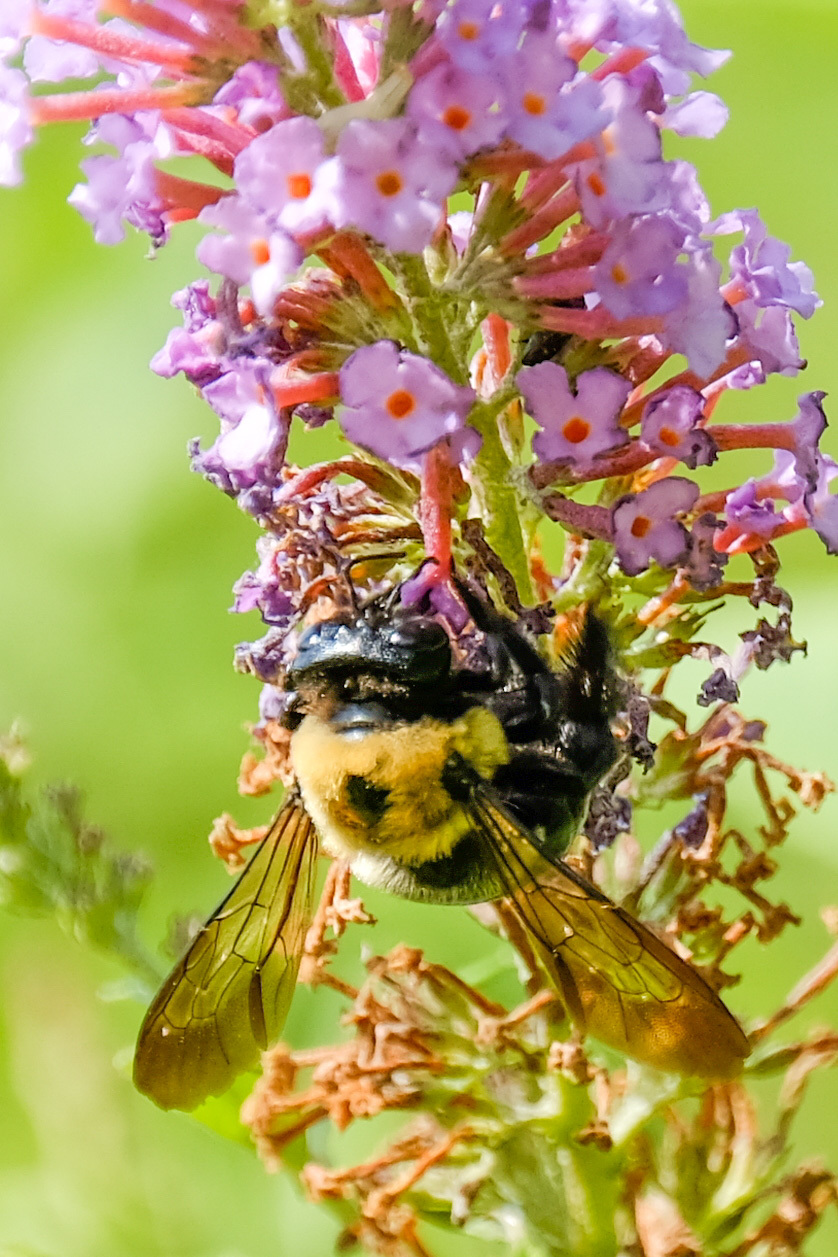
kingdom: Animalia
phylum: Arthropoda
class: Insecta
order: Hymenoptera
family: Apidae
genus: Xylocopa
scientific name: Xylocopa virginica
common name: Carpenter bee
